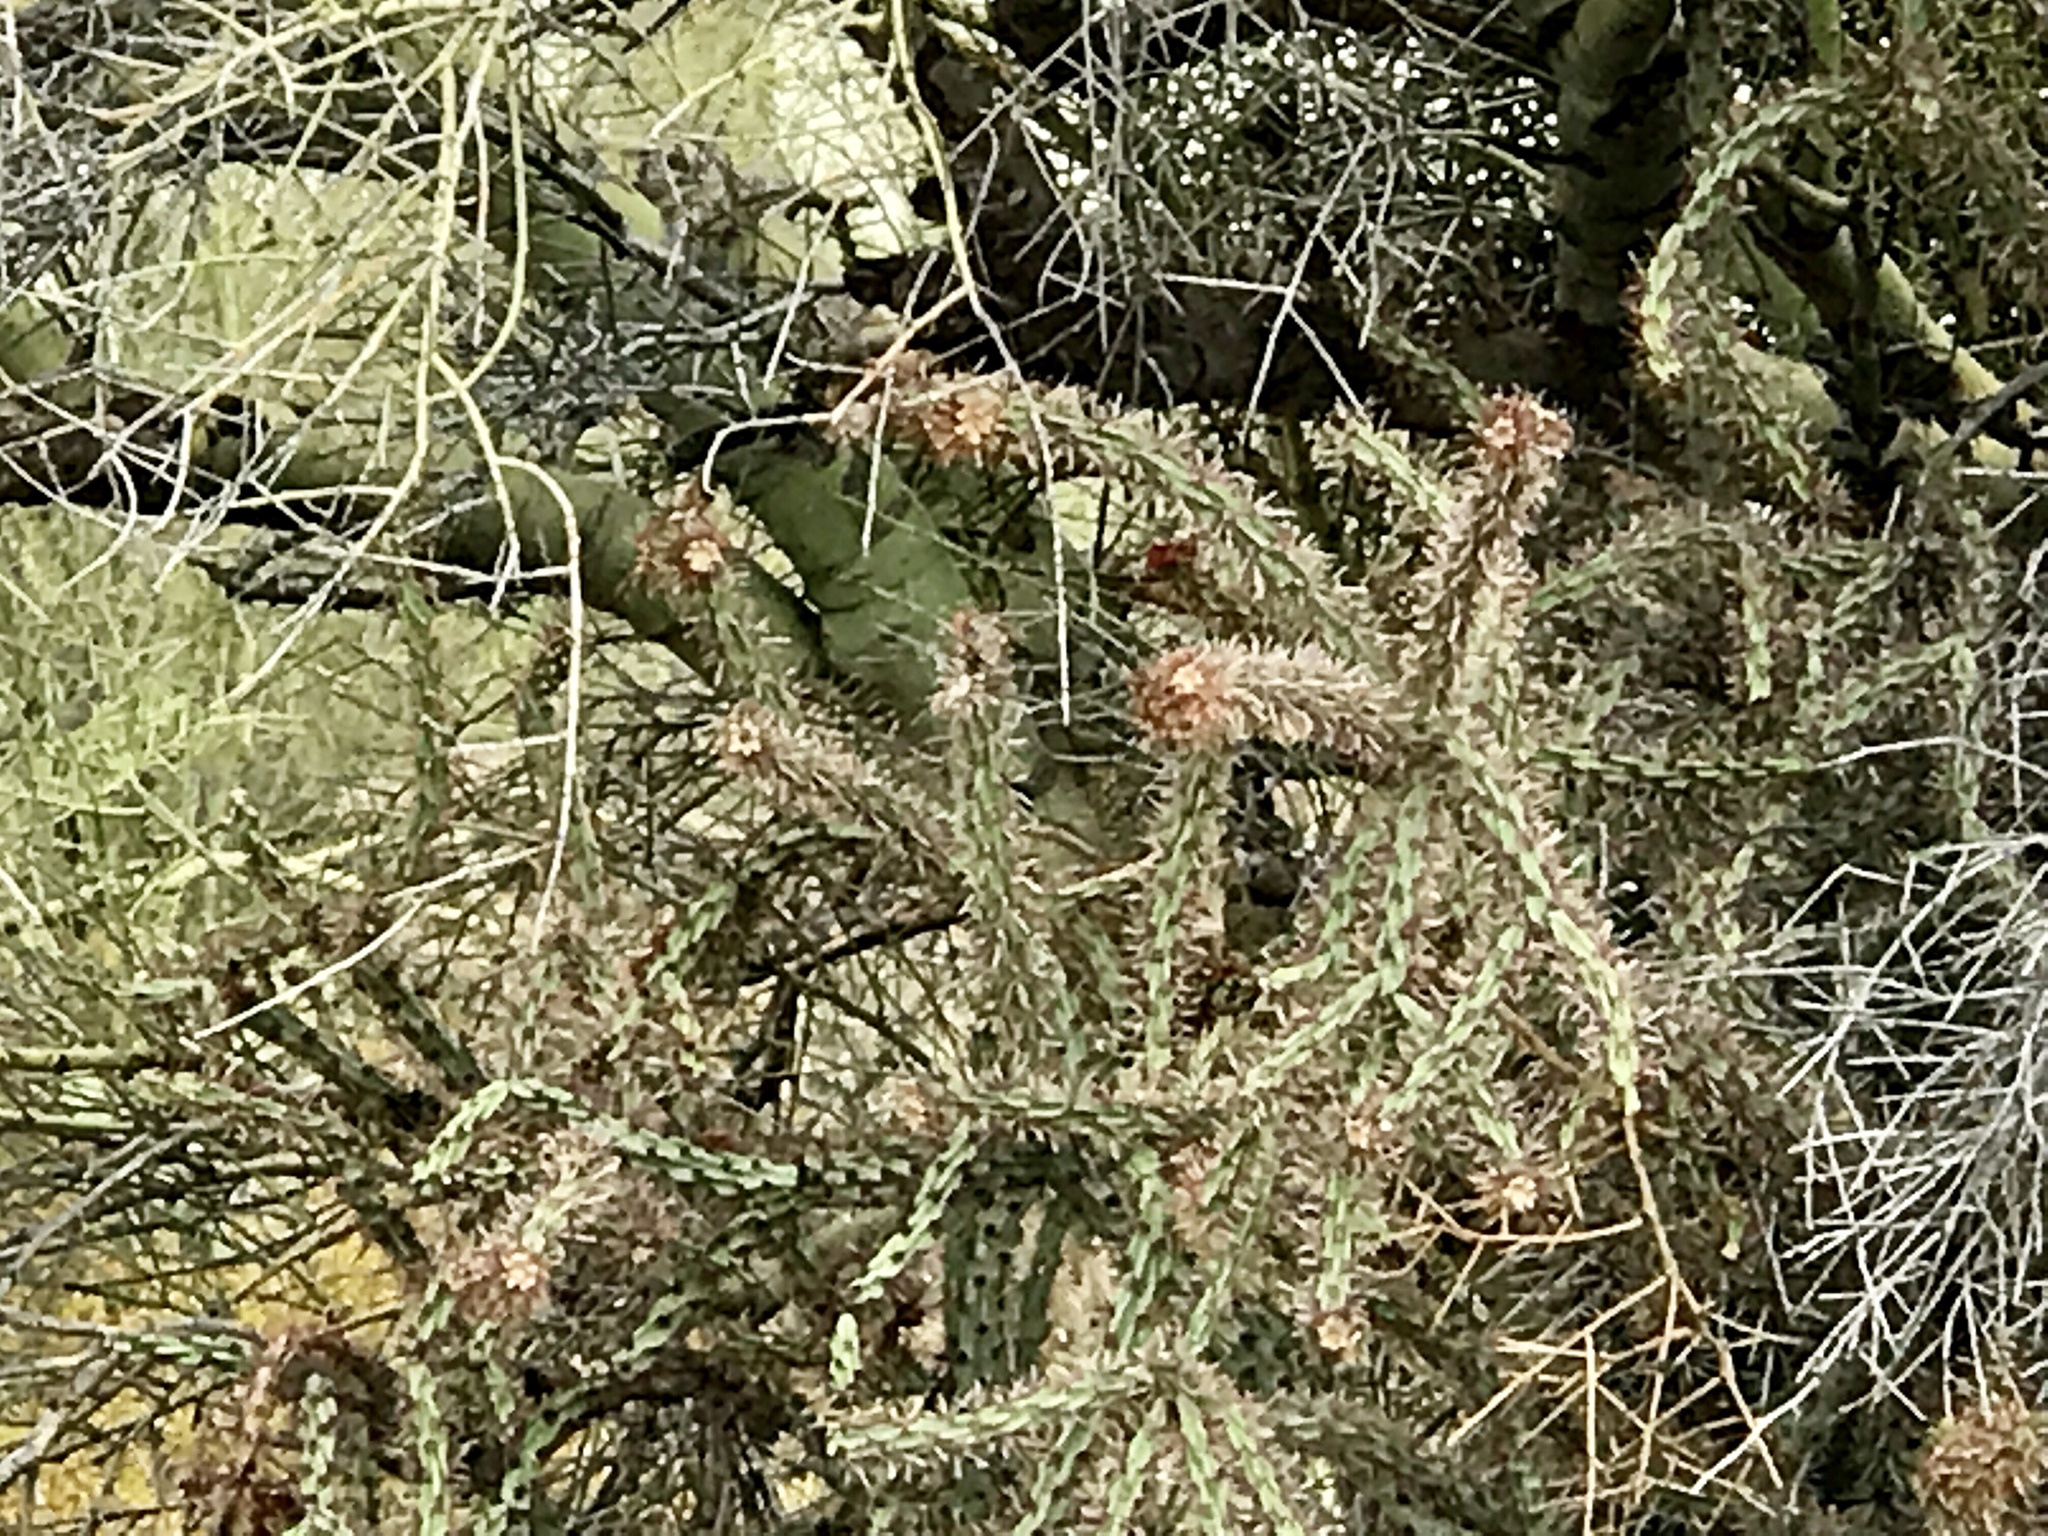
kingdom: Plantae
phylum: Tracheophyta
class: Magnoliopsida
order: Caryophyllales
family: Cactaceae
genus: Cylindropuntia
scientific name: Cylindropuntia thurberi
